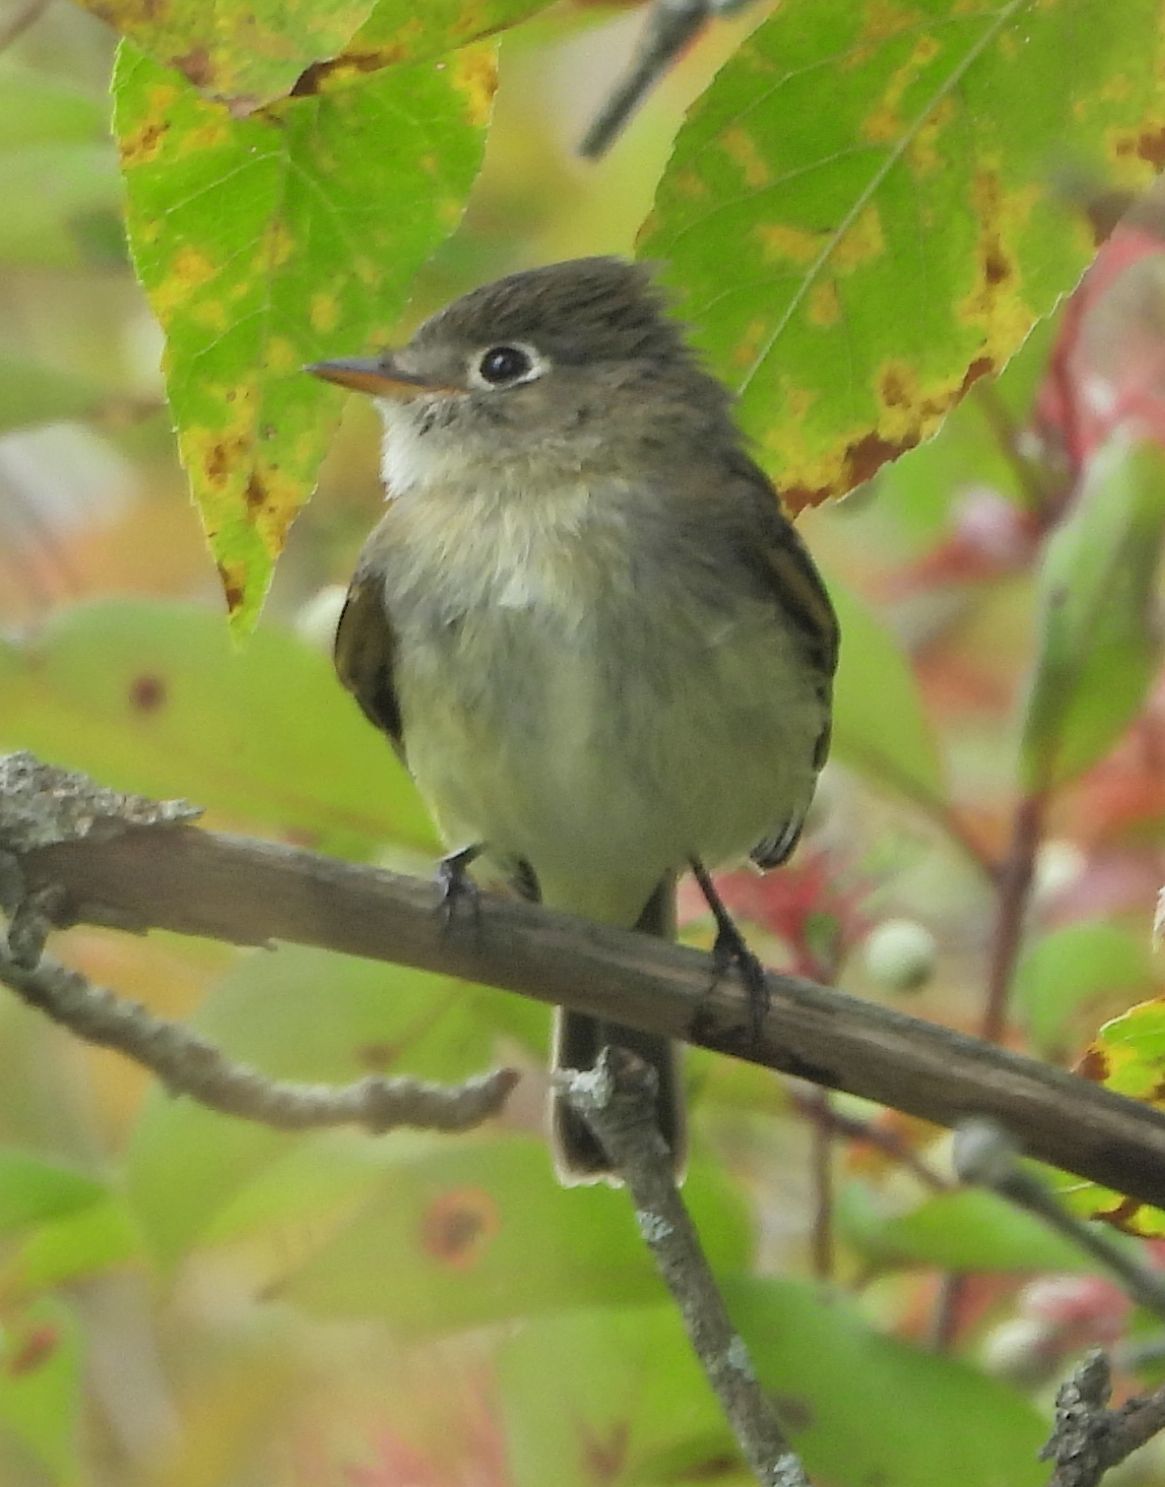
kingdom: Animalia
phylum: Chordata
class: Aves
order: Passeriformes
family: Tyrannidae
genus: Empidonax
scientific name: Empidonax minimus
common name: Least flycatcher
